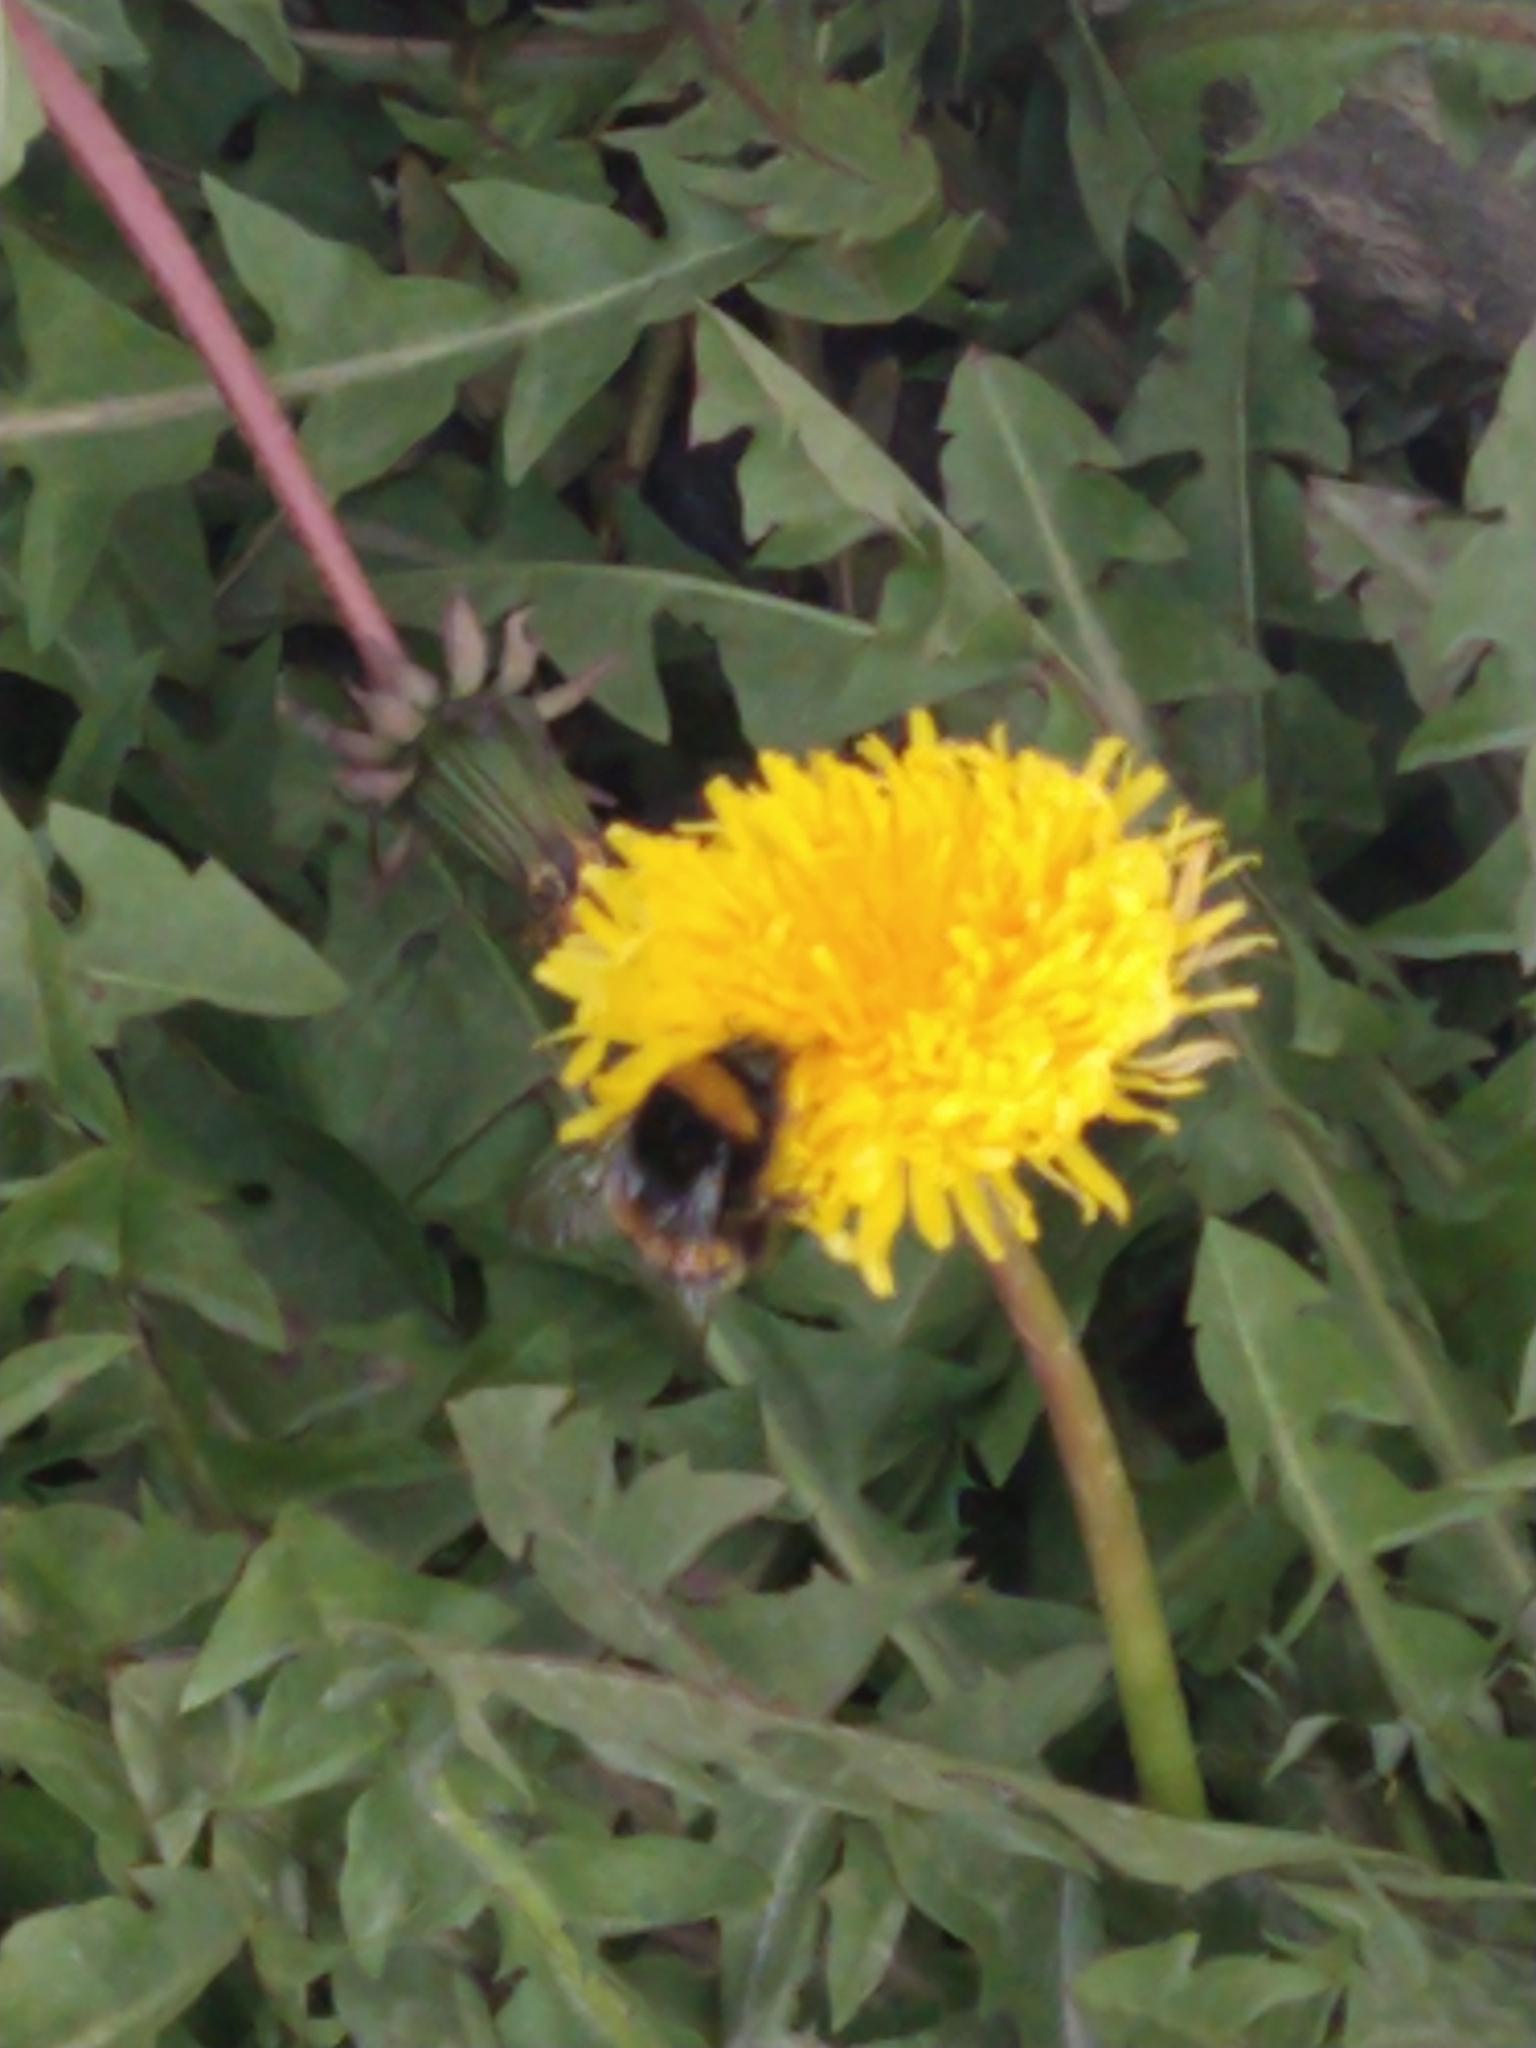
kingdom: Animalia
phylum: Arthropoda
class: Insecta
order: Hymenoptera
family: Apidae
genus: Bombus
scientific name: Bombus terrestris
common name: Buff-tailed bumblebee
